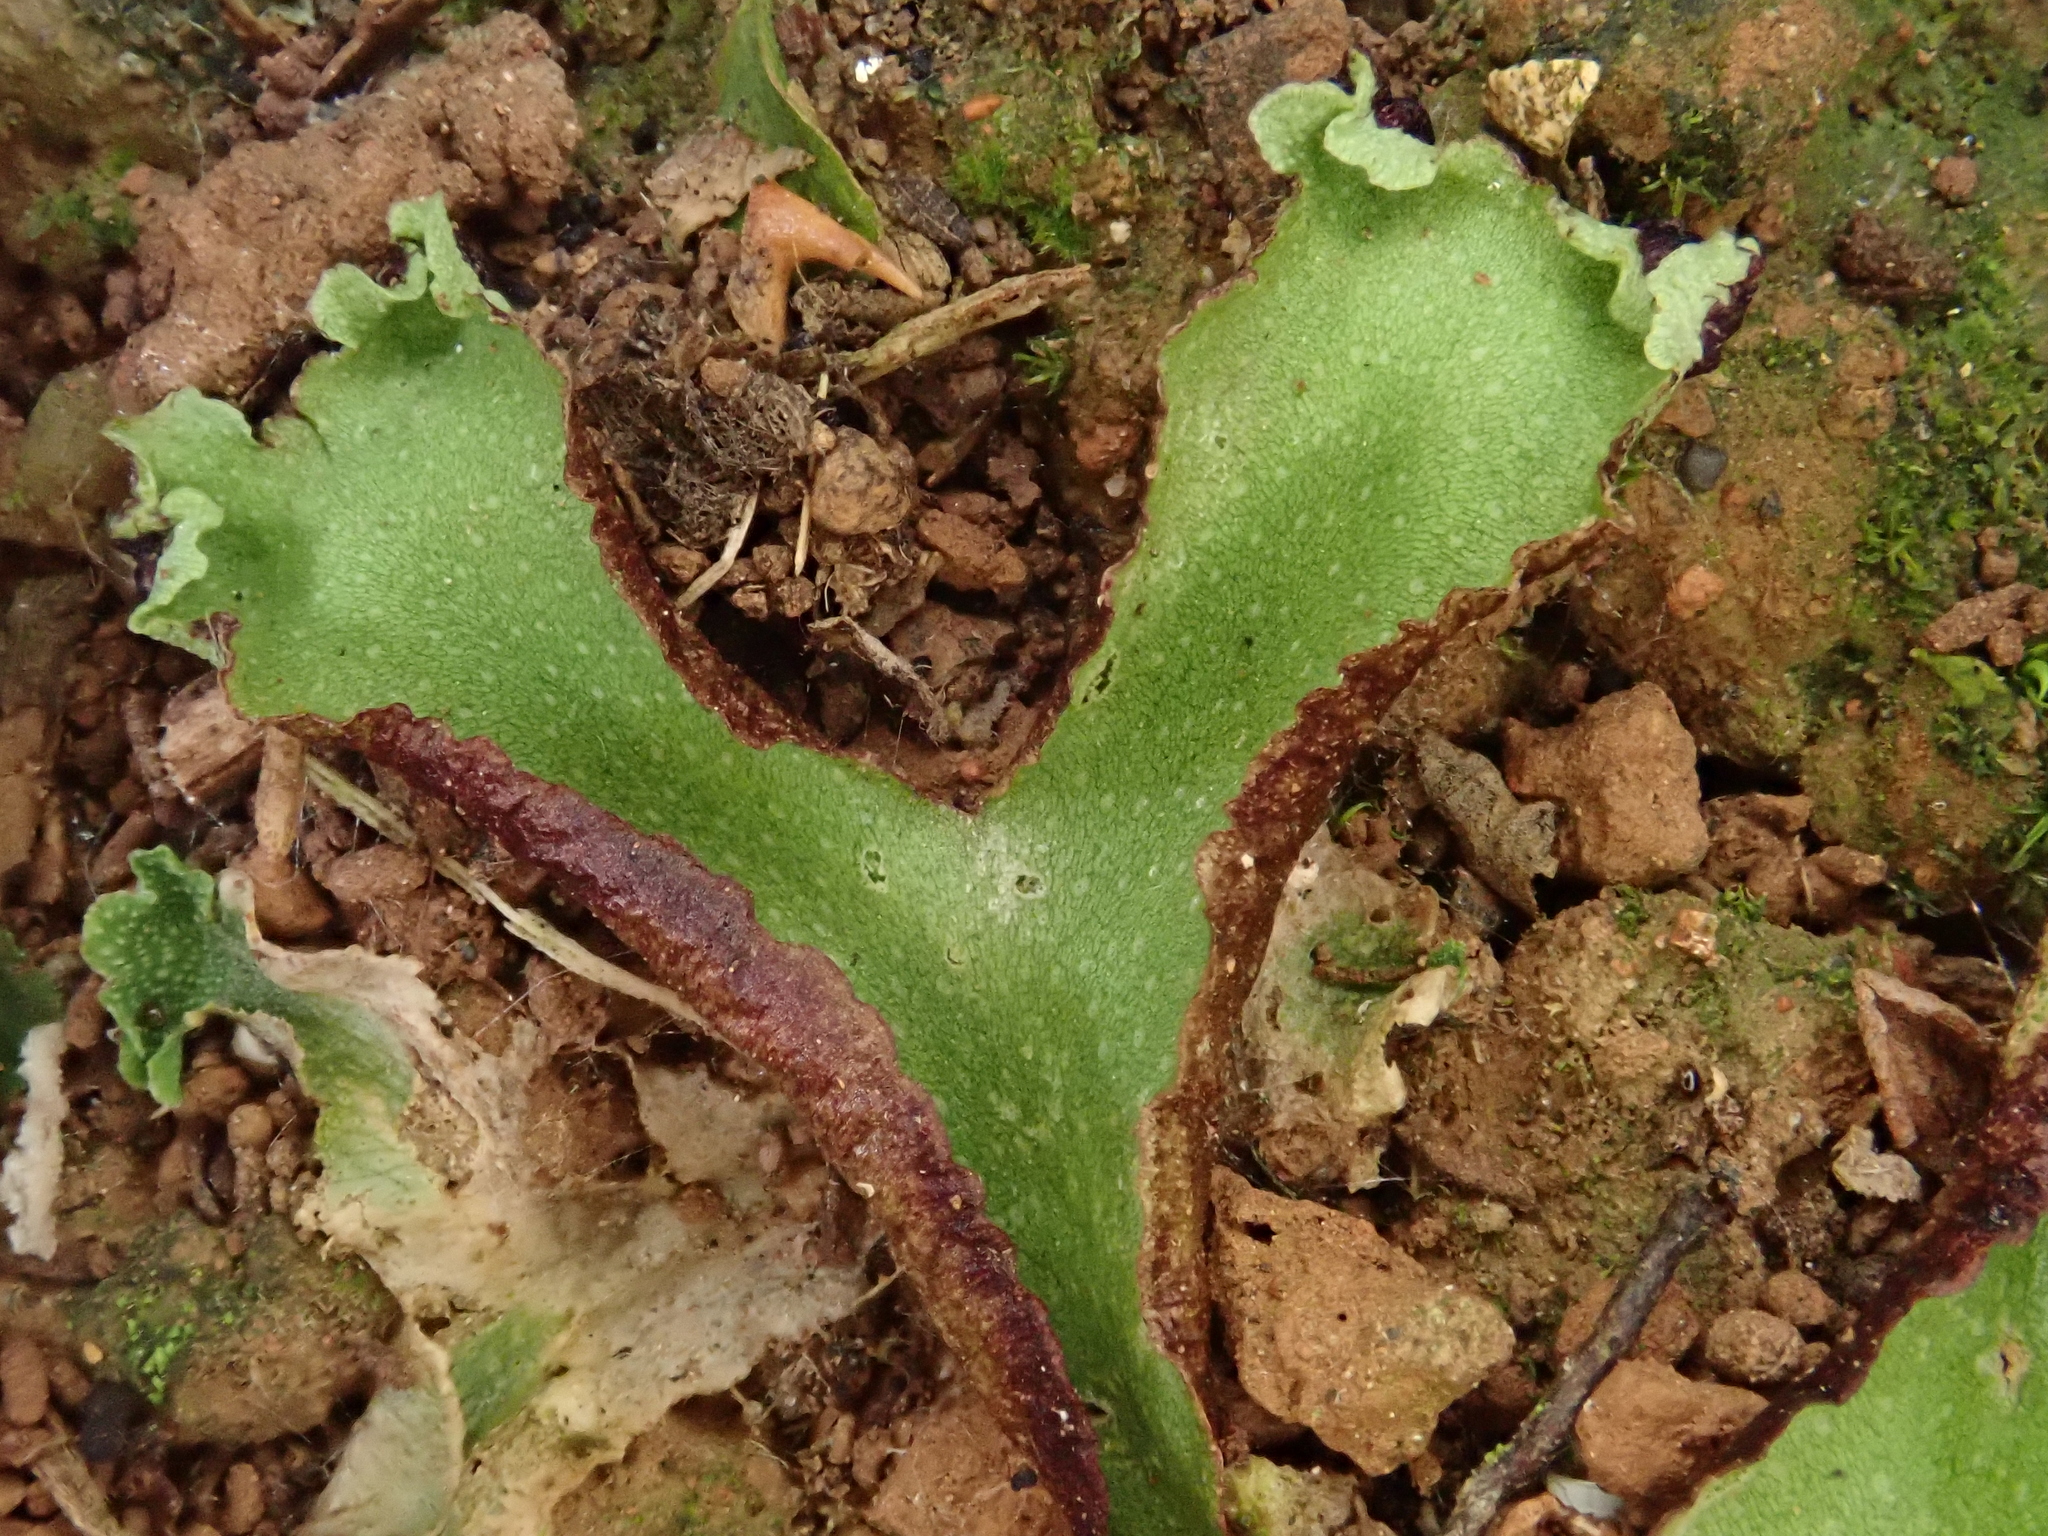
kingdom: Plantae
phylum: Marchantiophyta
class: Marchantiopsida
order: Marchantiales
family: Aytoniaceae
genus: Reboulia
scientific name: Reboulia hemisphaerica
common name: Purple-margined liverwort
